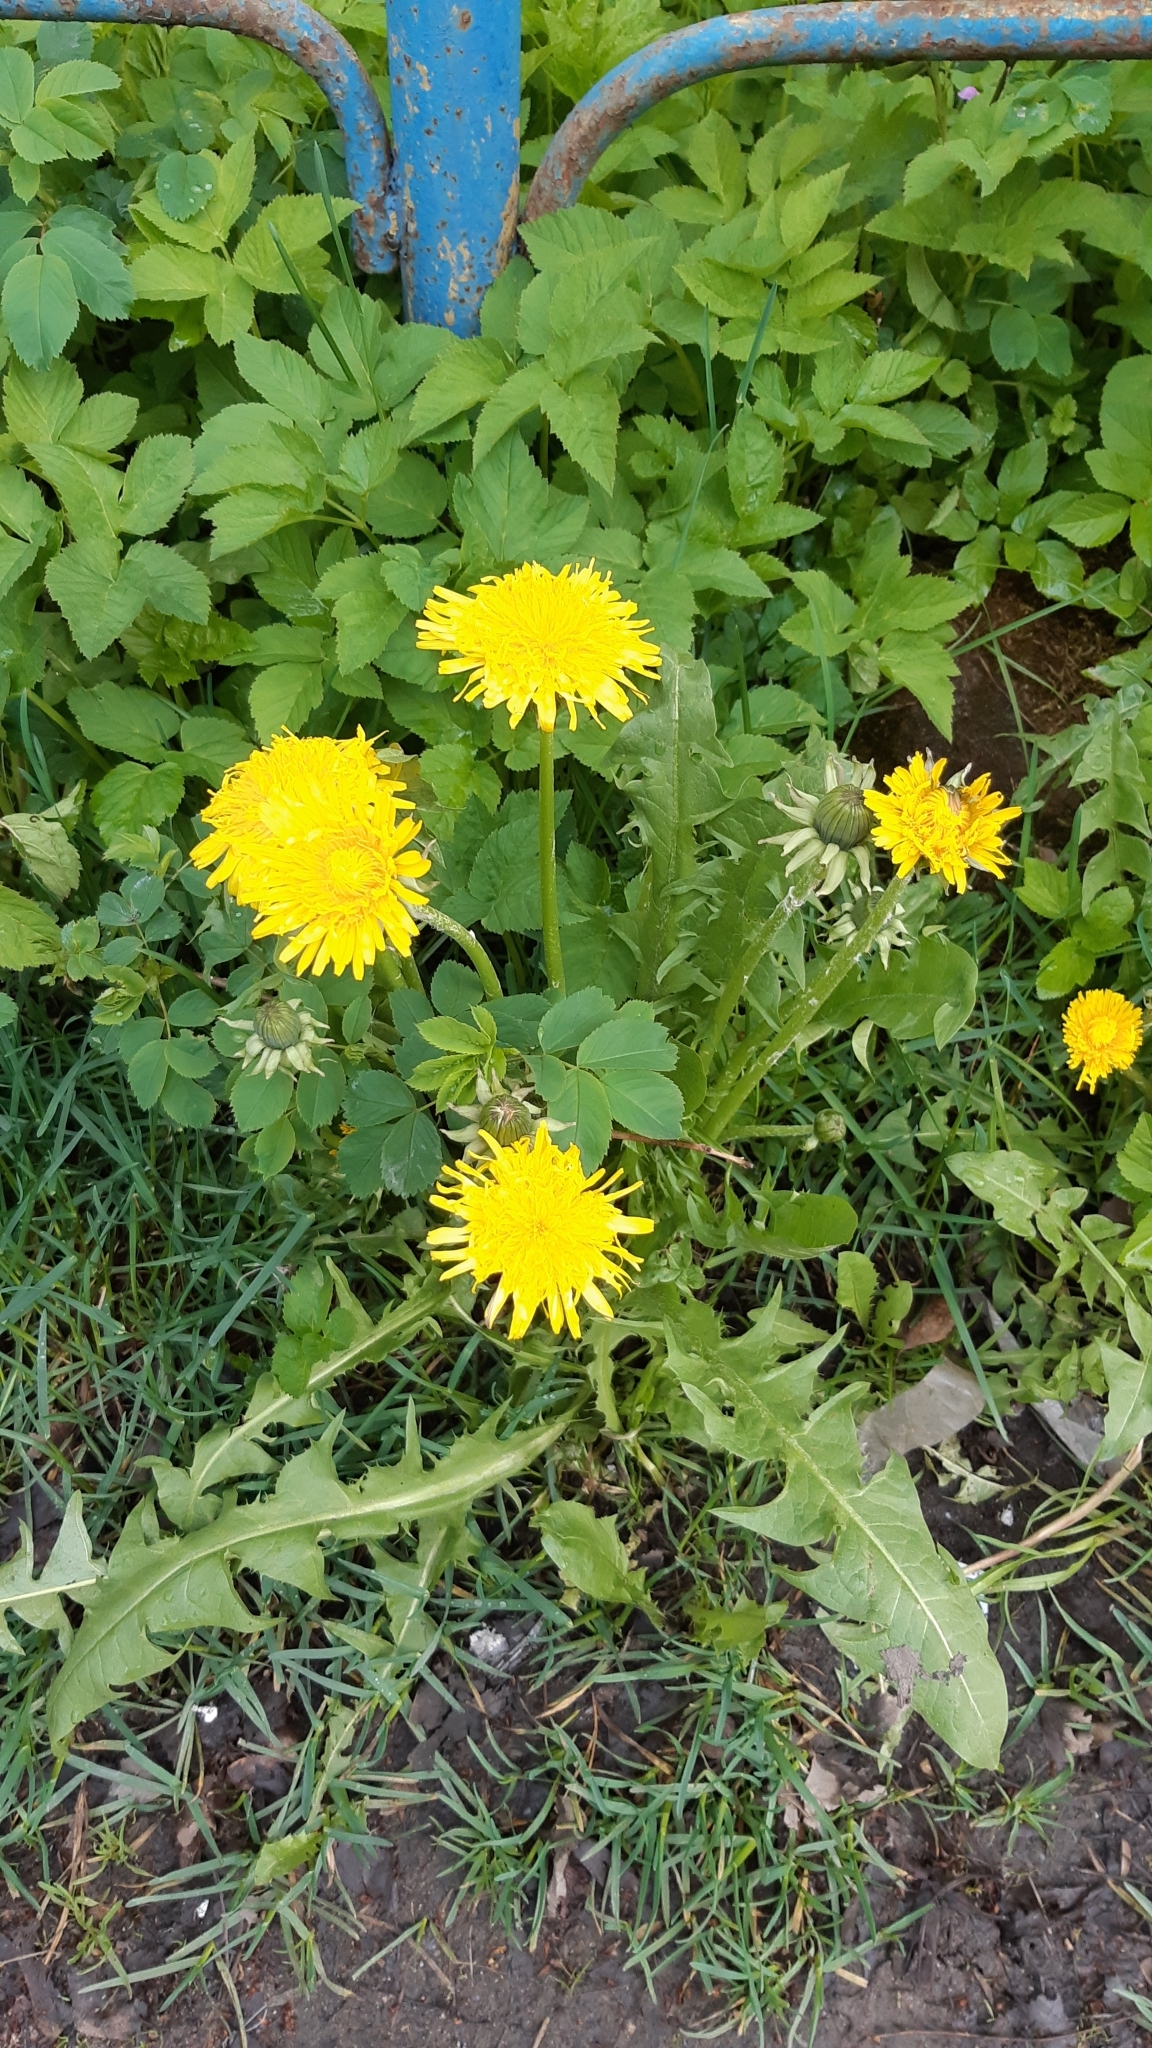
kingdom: Plantae
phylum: Tracheophyta
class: Magnoliopsida
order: Asterales
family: Asteraceae
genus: Taraxacum
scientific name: Taraxacum officinale
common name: Common dandelion
